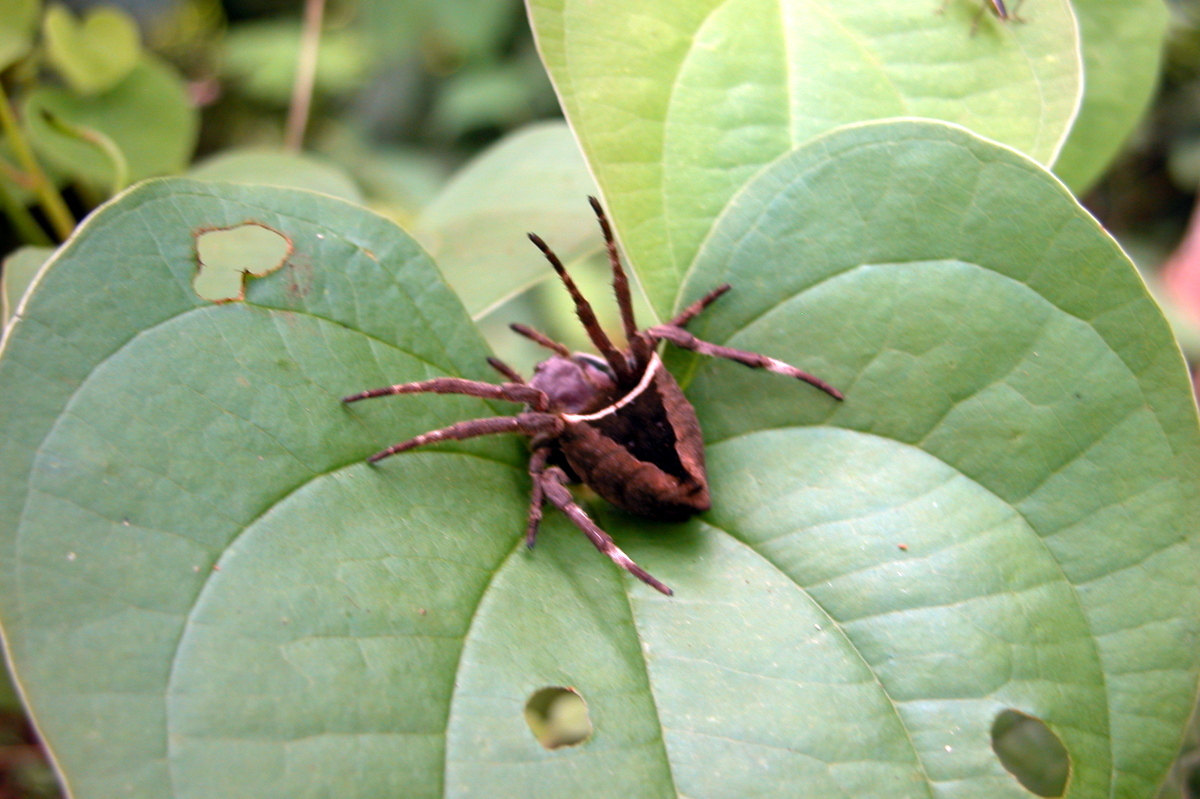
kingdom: Animalia
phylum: Arthropoda
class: Arachnida
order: Araneae
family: Araneidae
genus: Parawixia
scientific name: Parawixia dehaani
